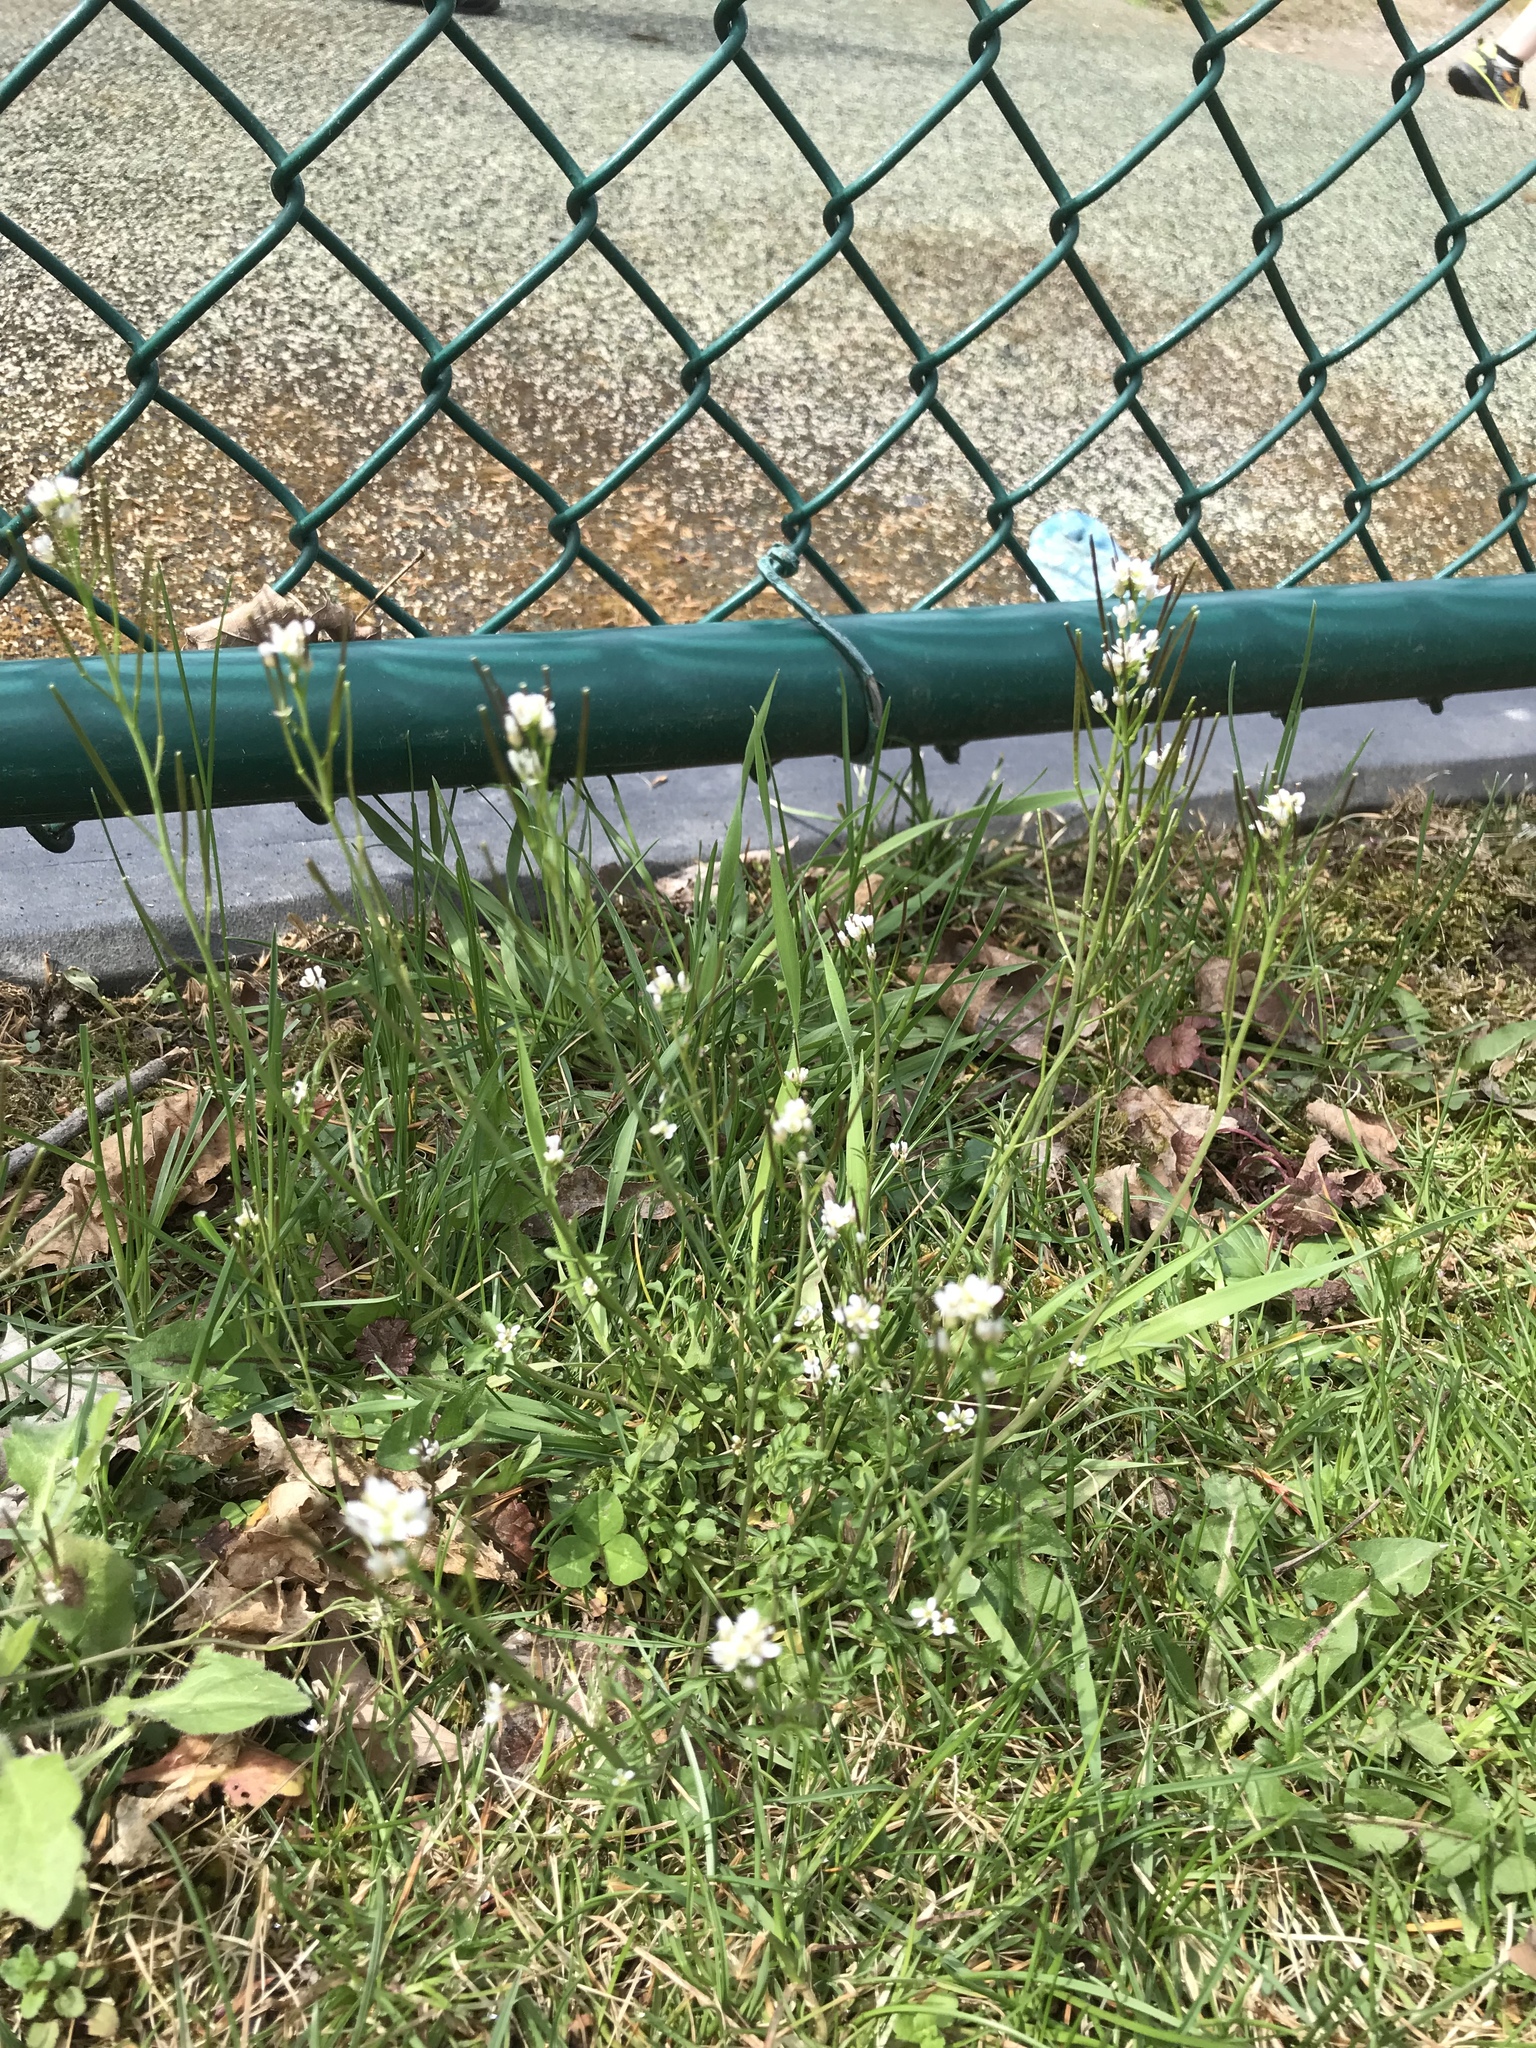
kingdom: Plantae
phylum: Tracheophyta
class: Magnoliopsida
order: Brassicales
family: Brassicaceae
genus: Cardamine
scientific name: Cardamine hirsuta
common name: Hairy bittercress
